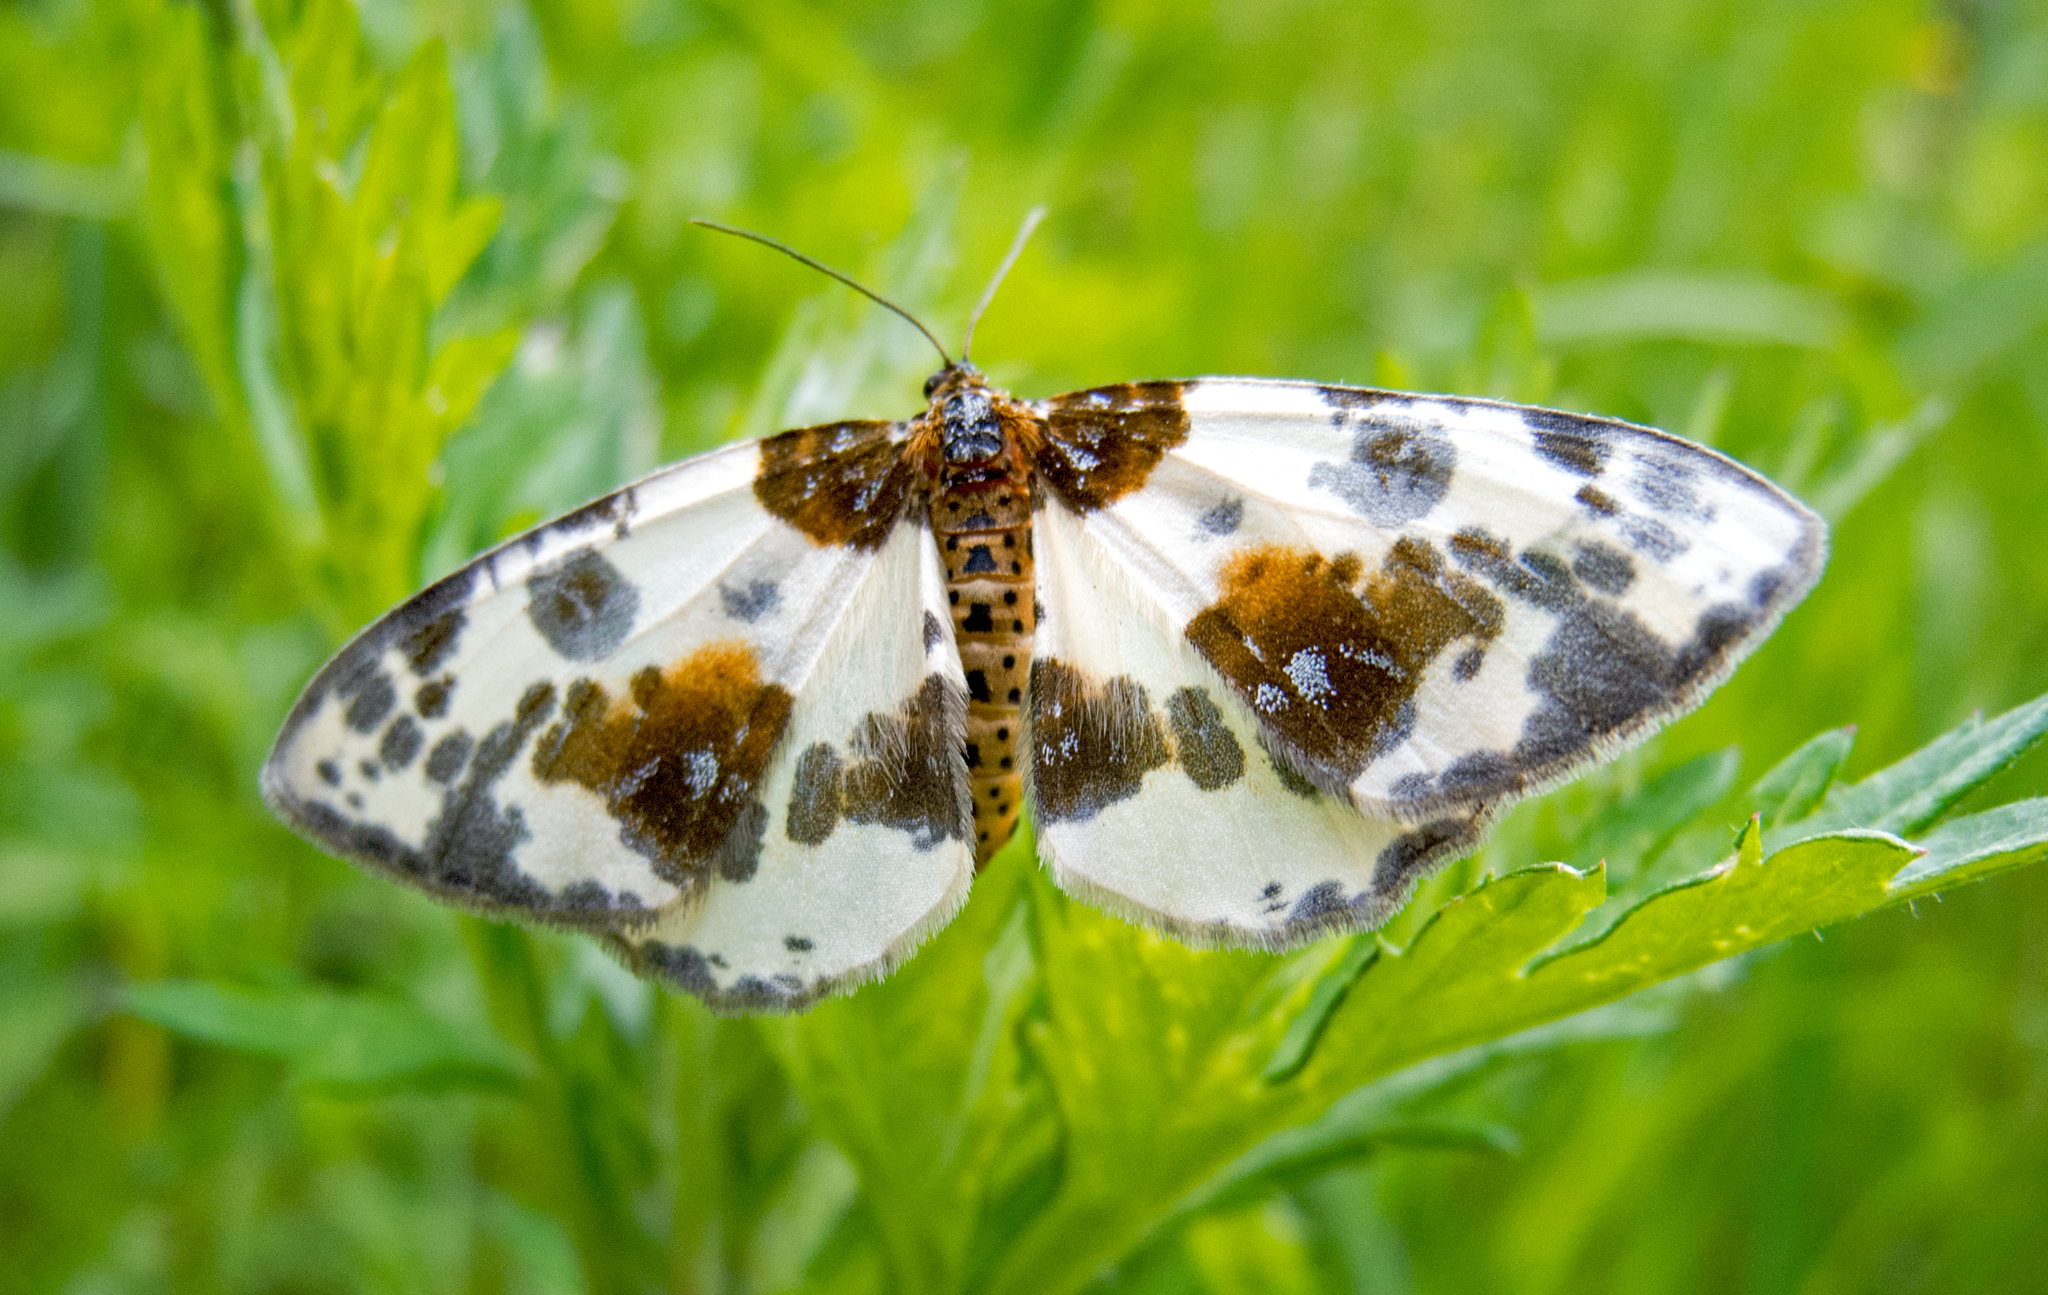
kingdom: Animalia
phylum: Arthropoda
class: Insecta
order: Lepidoptera
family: Geometridae
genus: Abraxas
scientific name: Abraxas sylvata
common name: Clouded magpie
